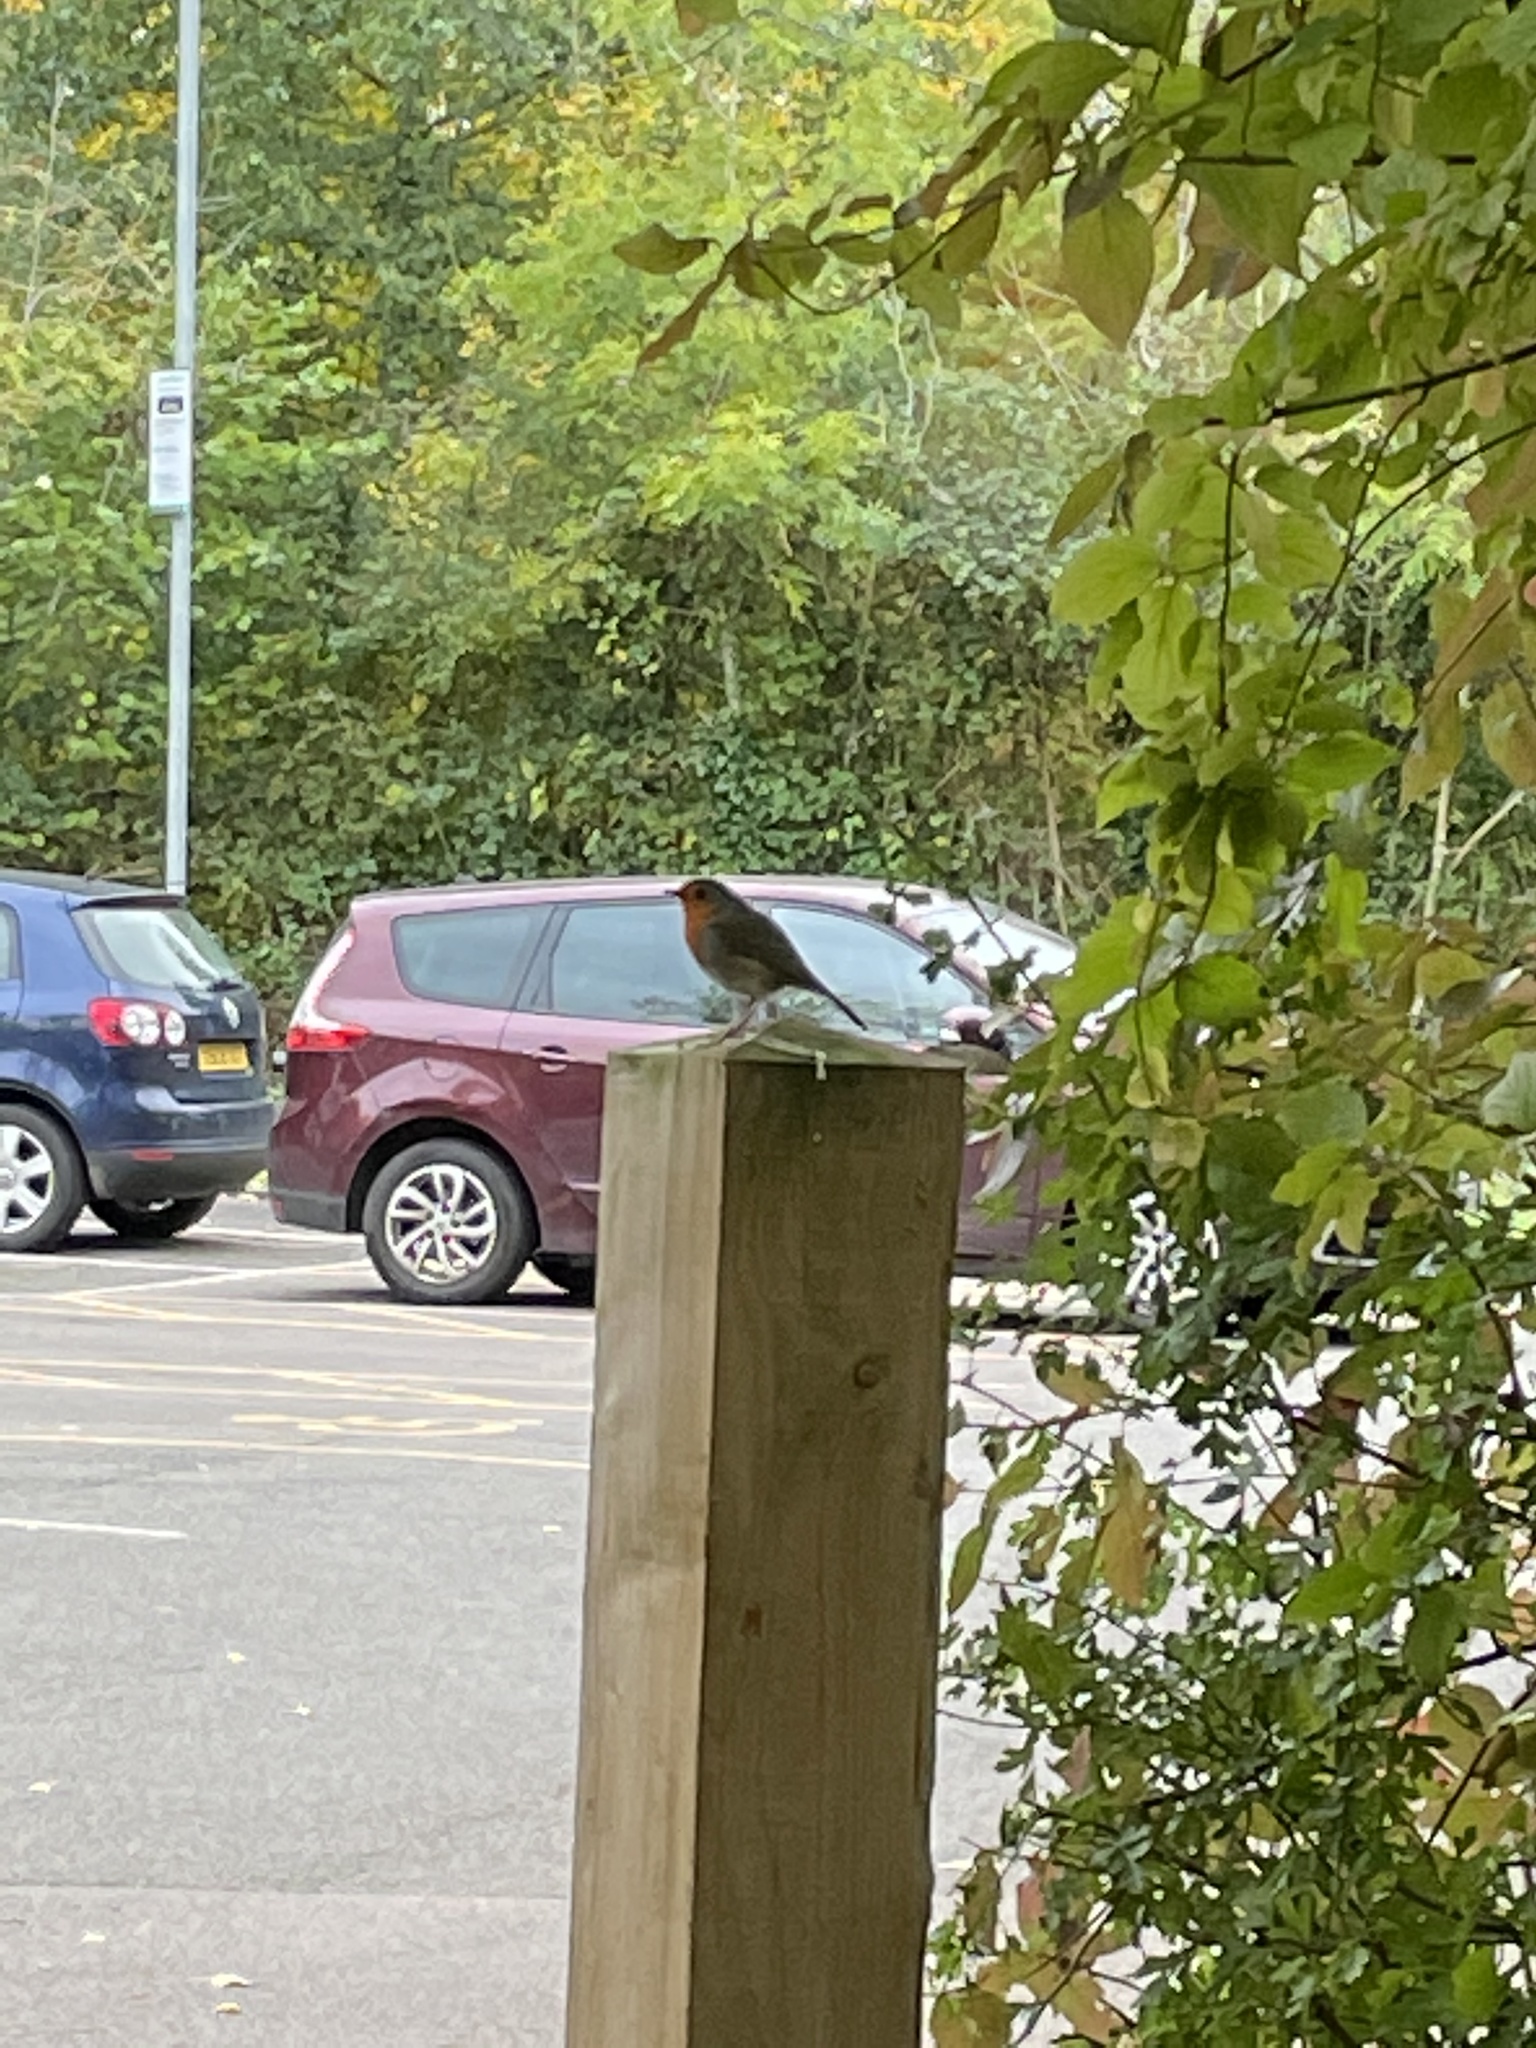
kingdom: Animalia
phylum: Chordata
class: Aves
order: Passeriformes
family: Muscicapidae
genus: Erithacus
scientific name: Erithacus rubecula
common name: European robin
